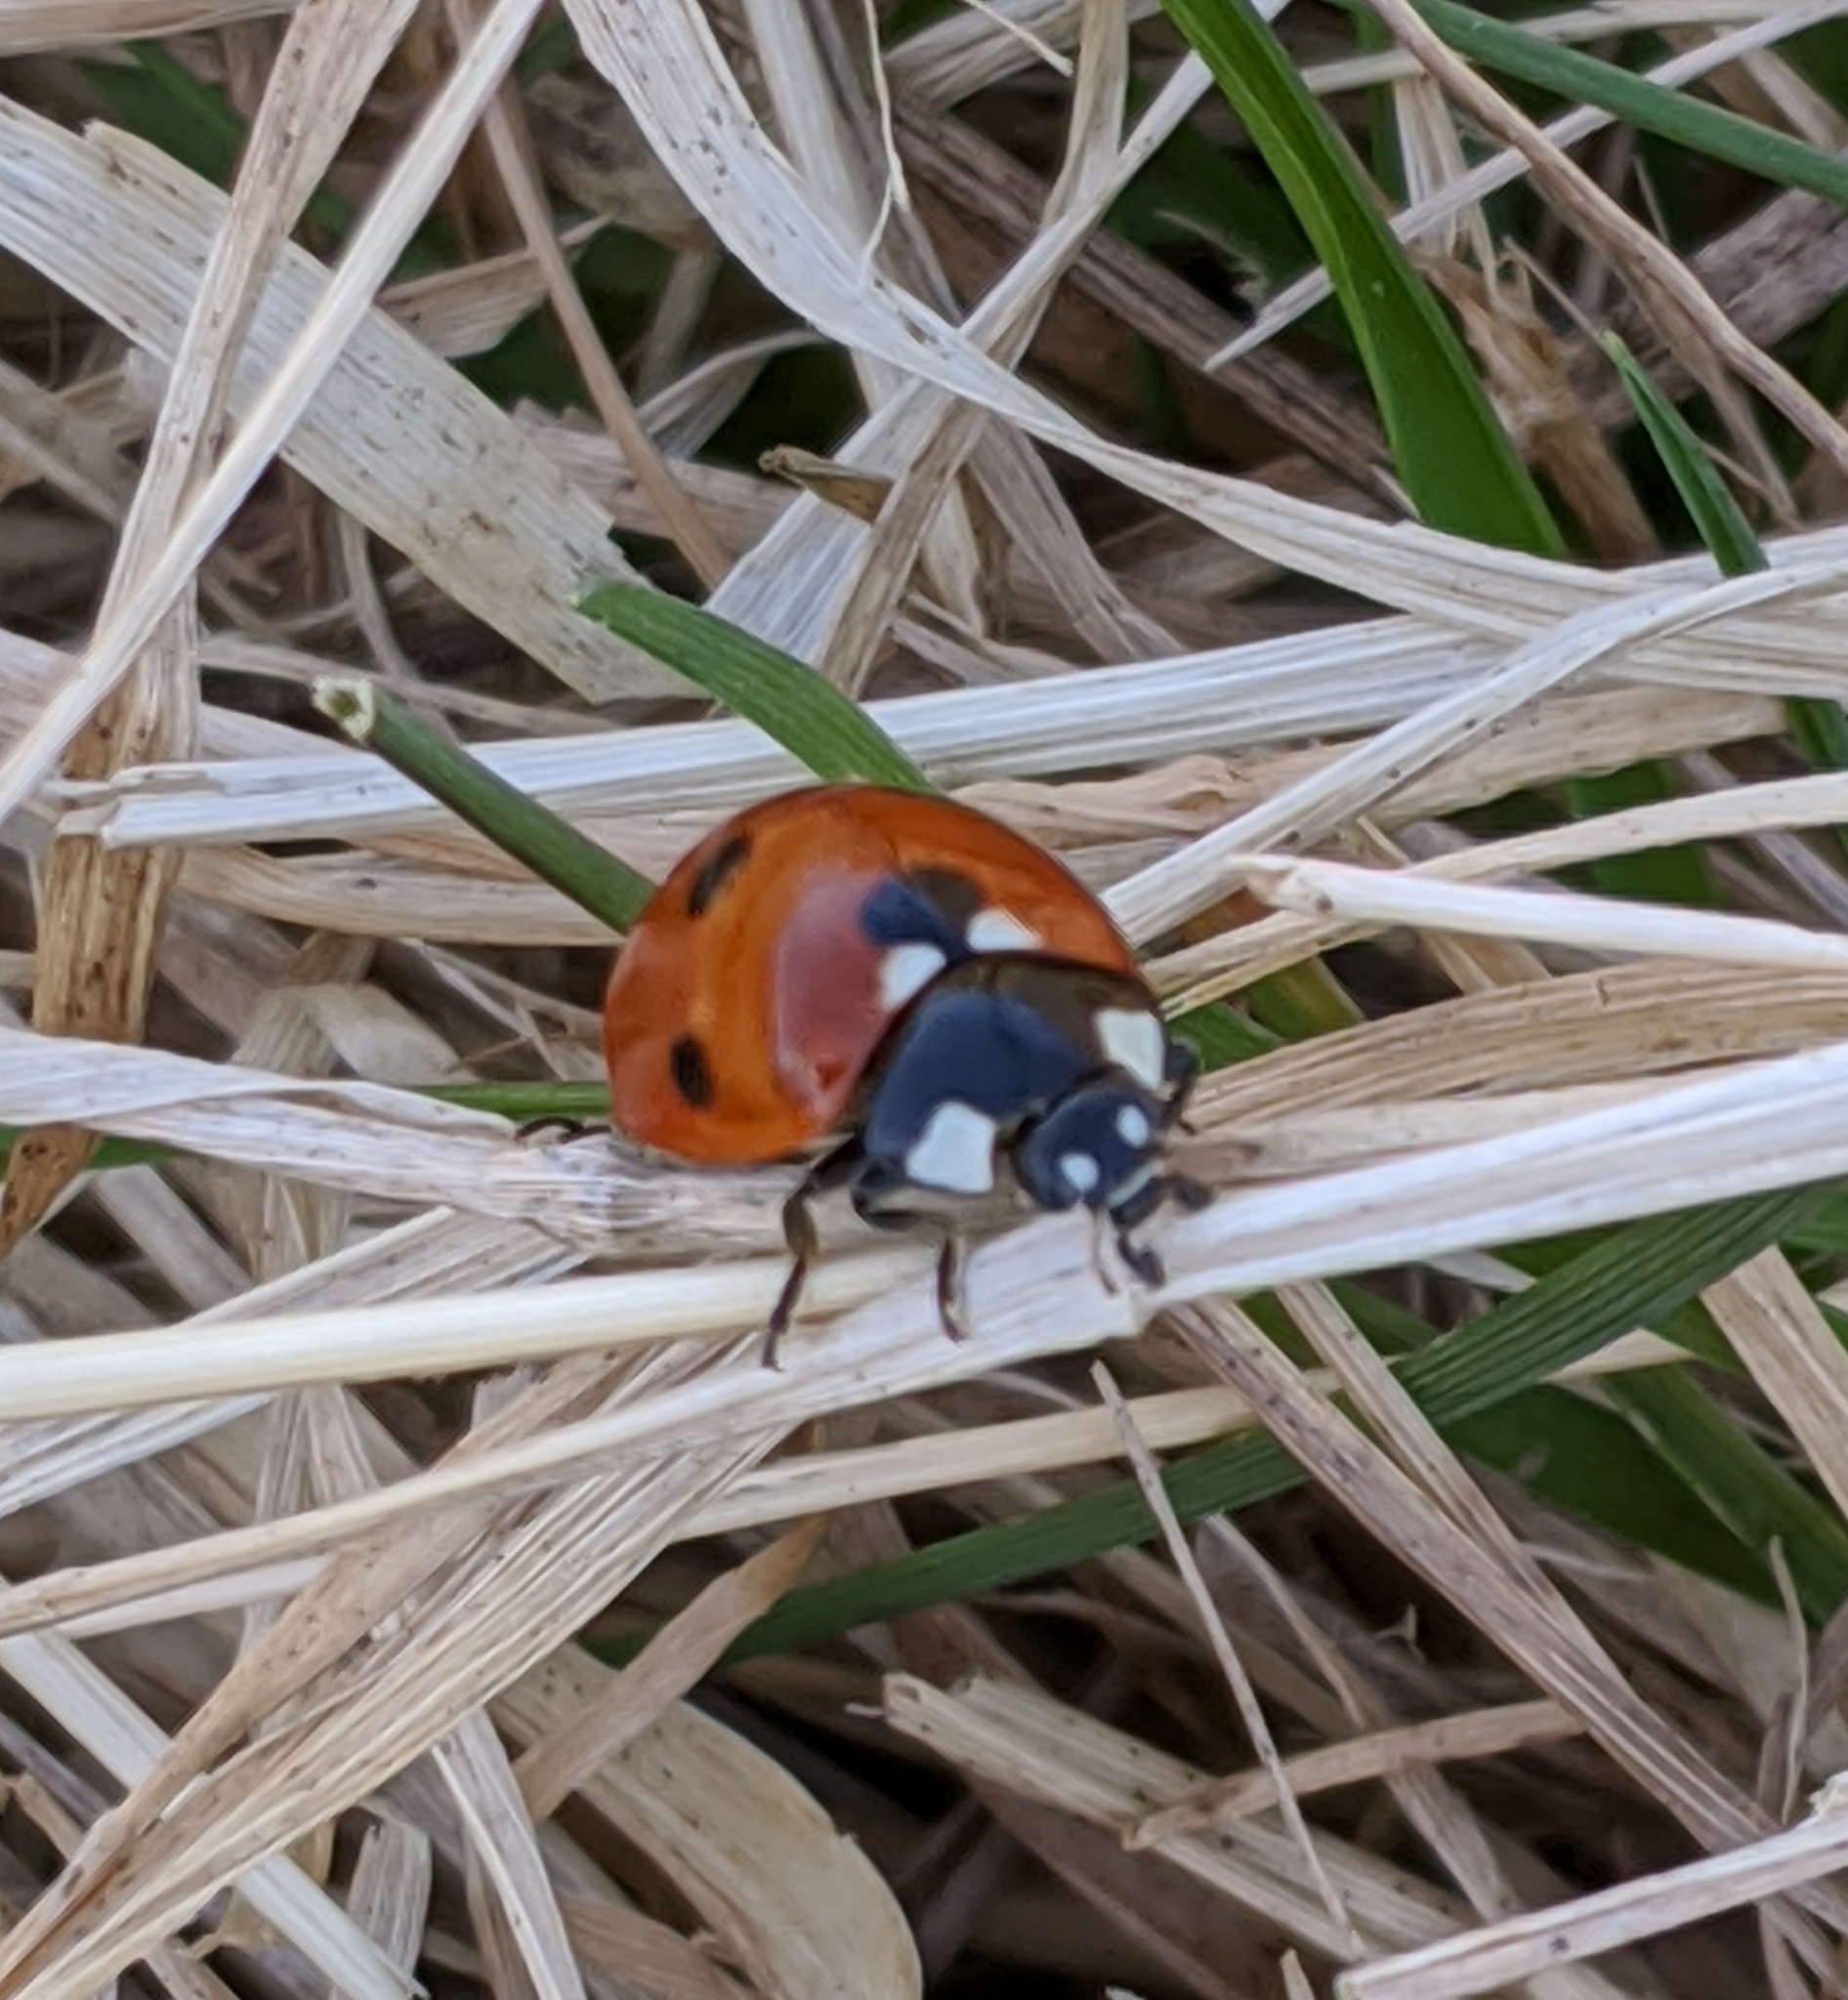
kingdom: Animalia
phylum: Arthropoda
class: Insecta
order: Coleoptera
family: Coccinellidae
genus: Coccinella
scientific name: Coccinella septempunctata
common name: Sevenspotted lady beetle
